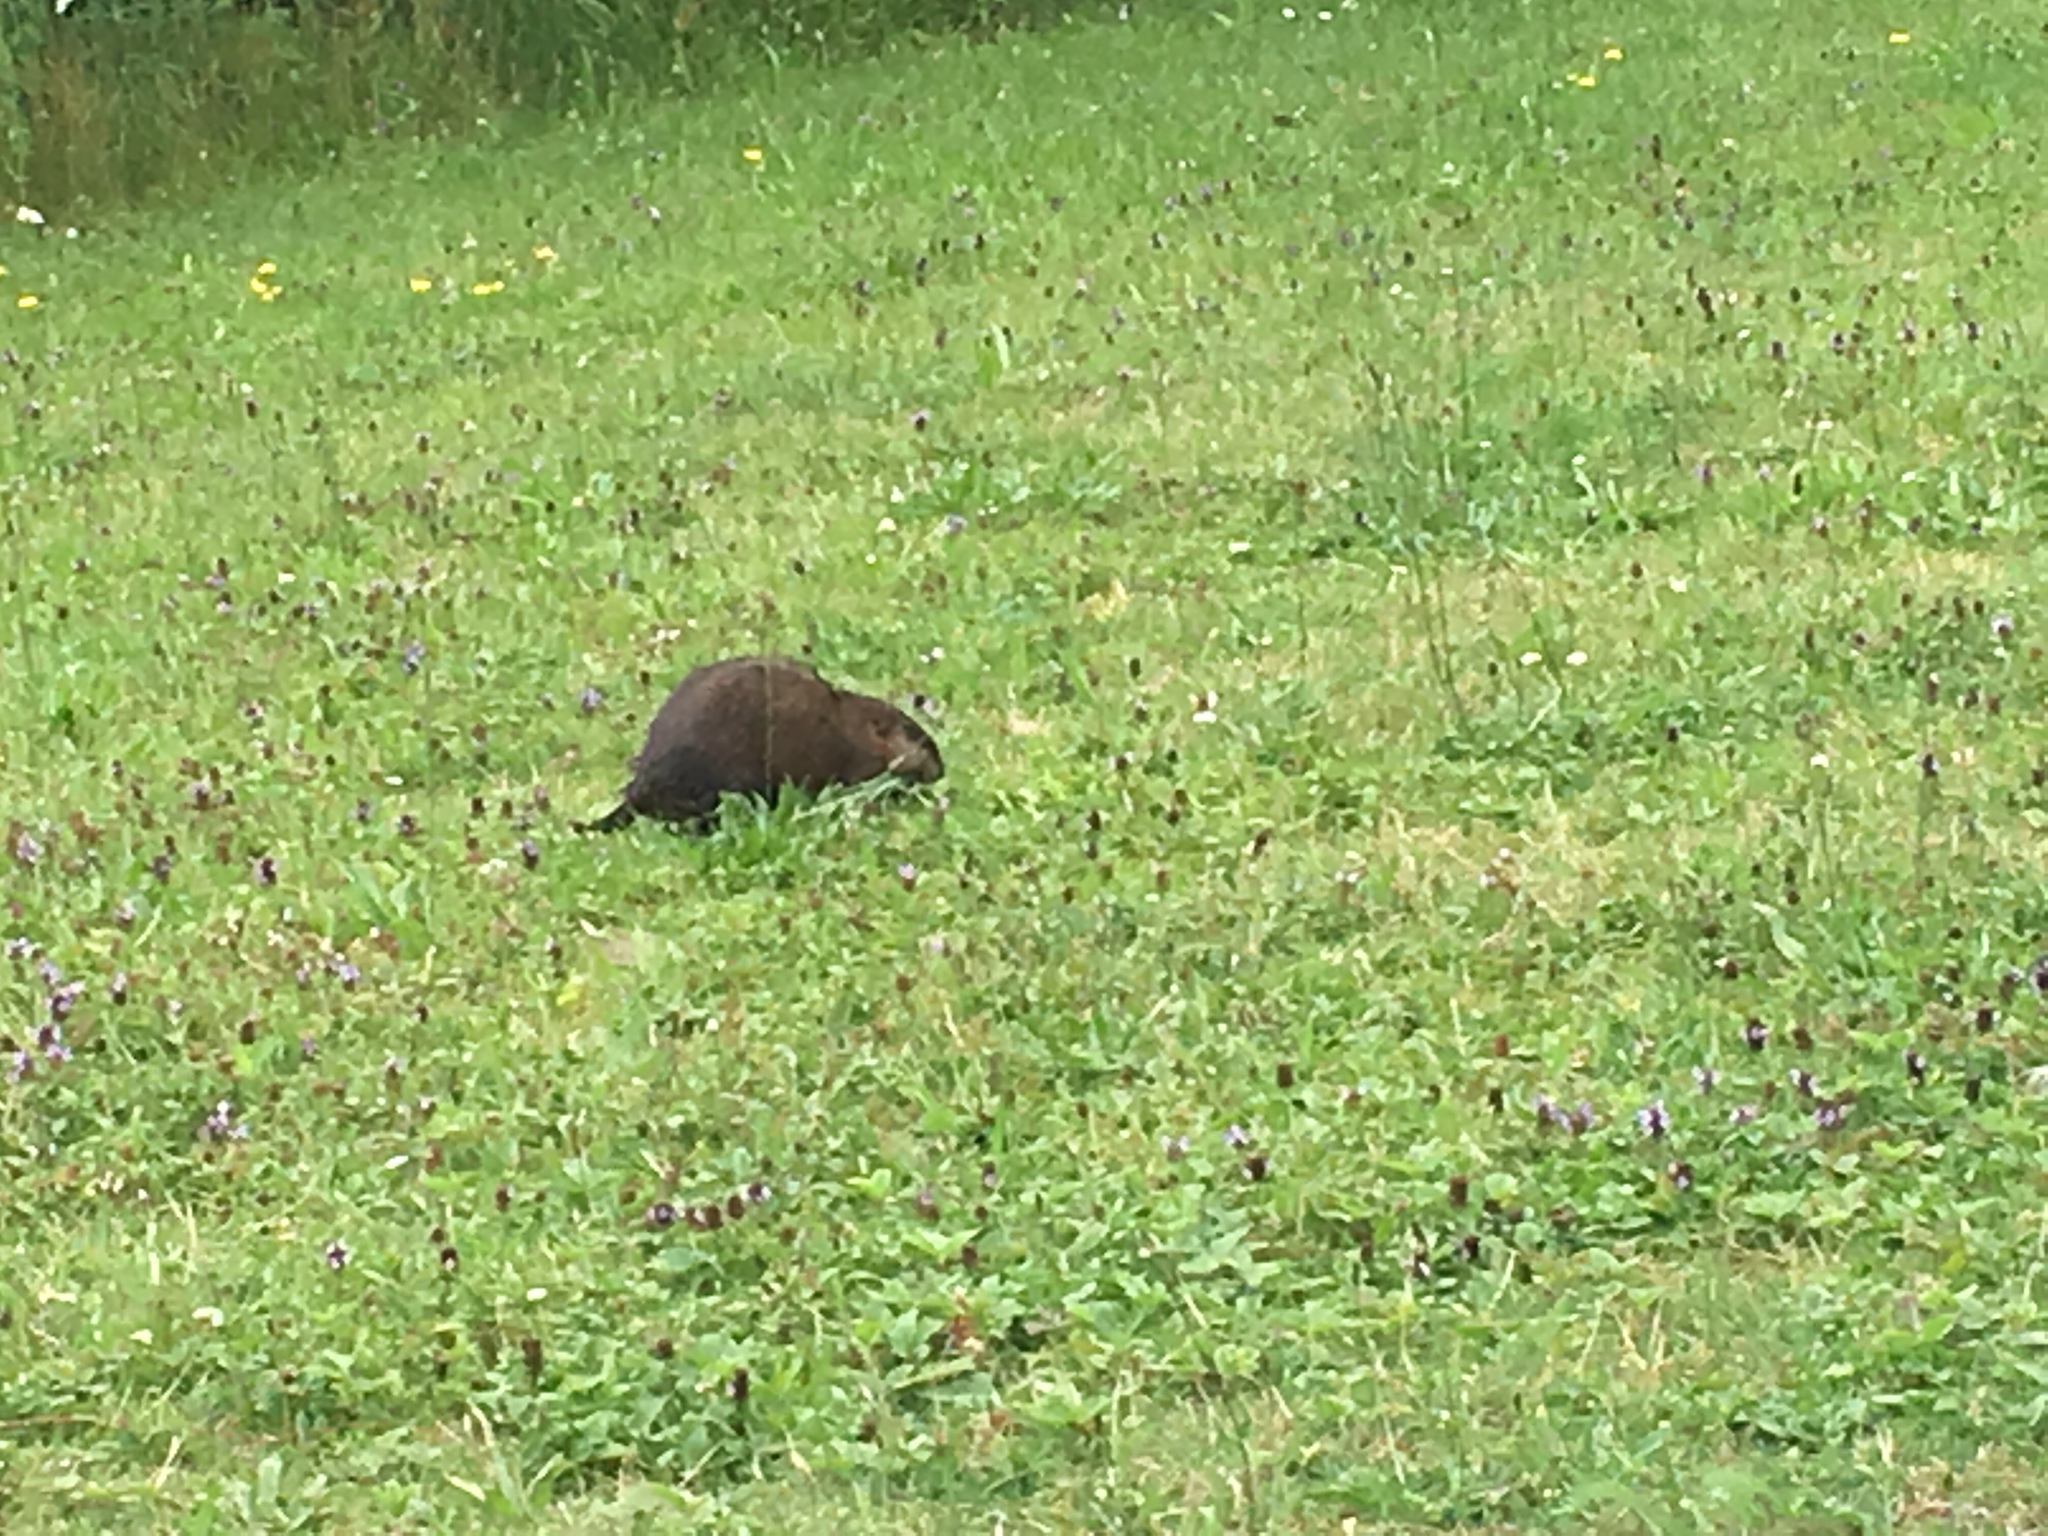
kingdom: Animalia
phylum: Chordata
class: Mammalia
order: Rodentia
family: Cricetidae
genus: Ondatra
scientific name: Ondatra zibethicus
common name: Muskrat
